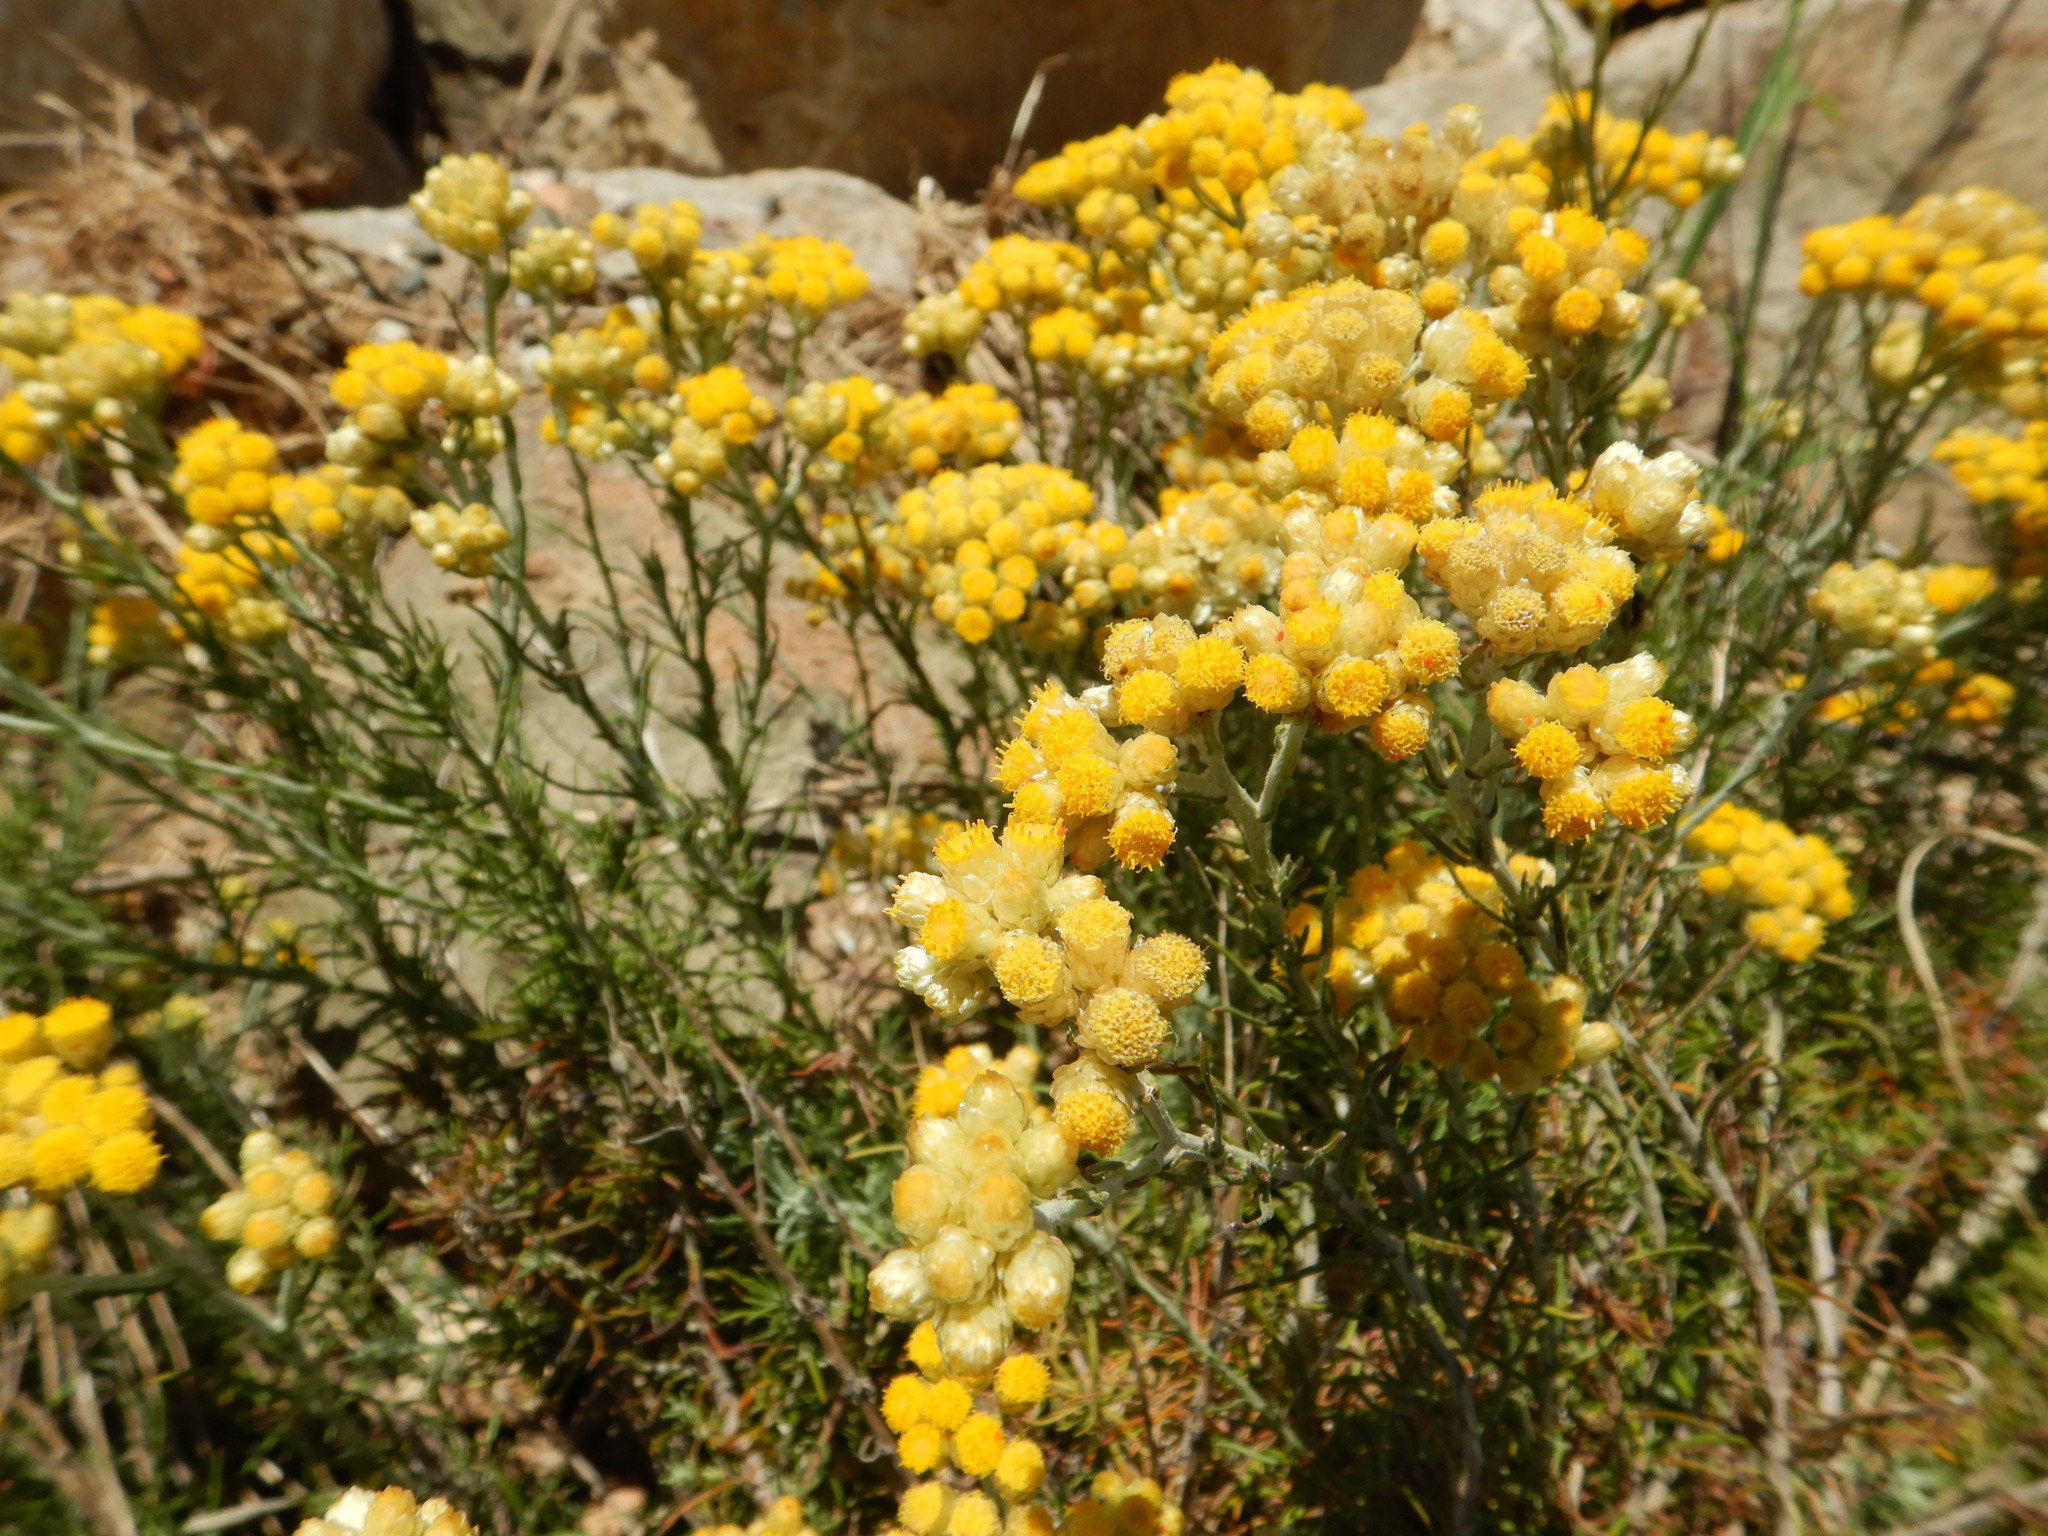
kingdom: Plantae
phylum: Tracheophyta
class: Magnoliopsida
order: Asterales
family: Asteraceae
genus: Helichrysum
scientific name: Helichrysum stoechas
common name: Goldilocks
